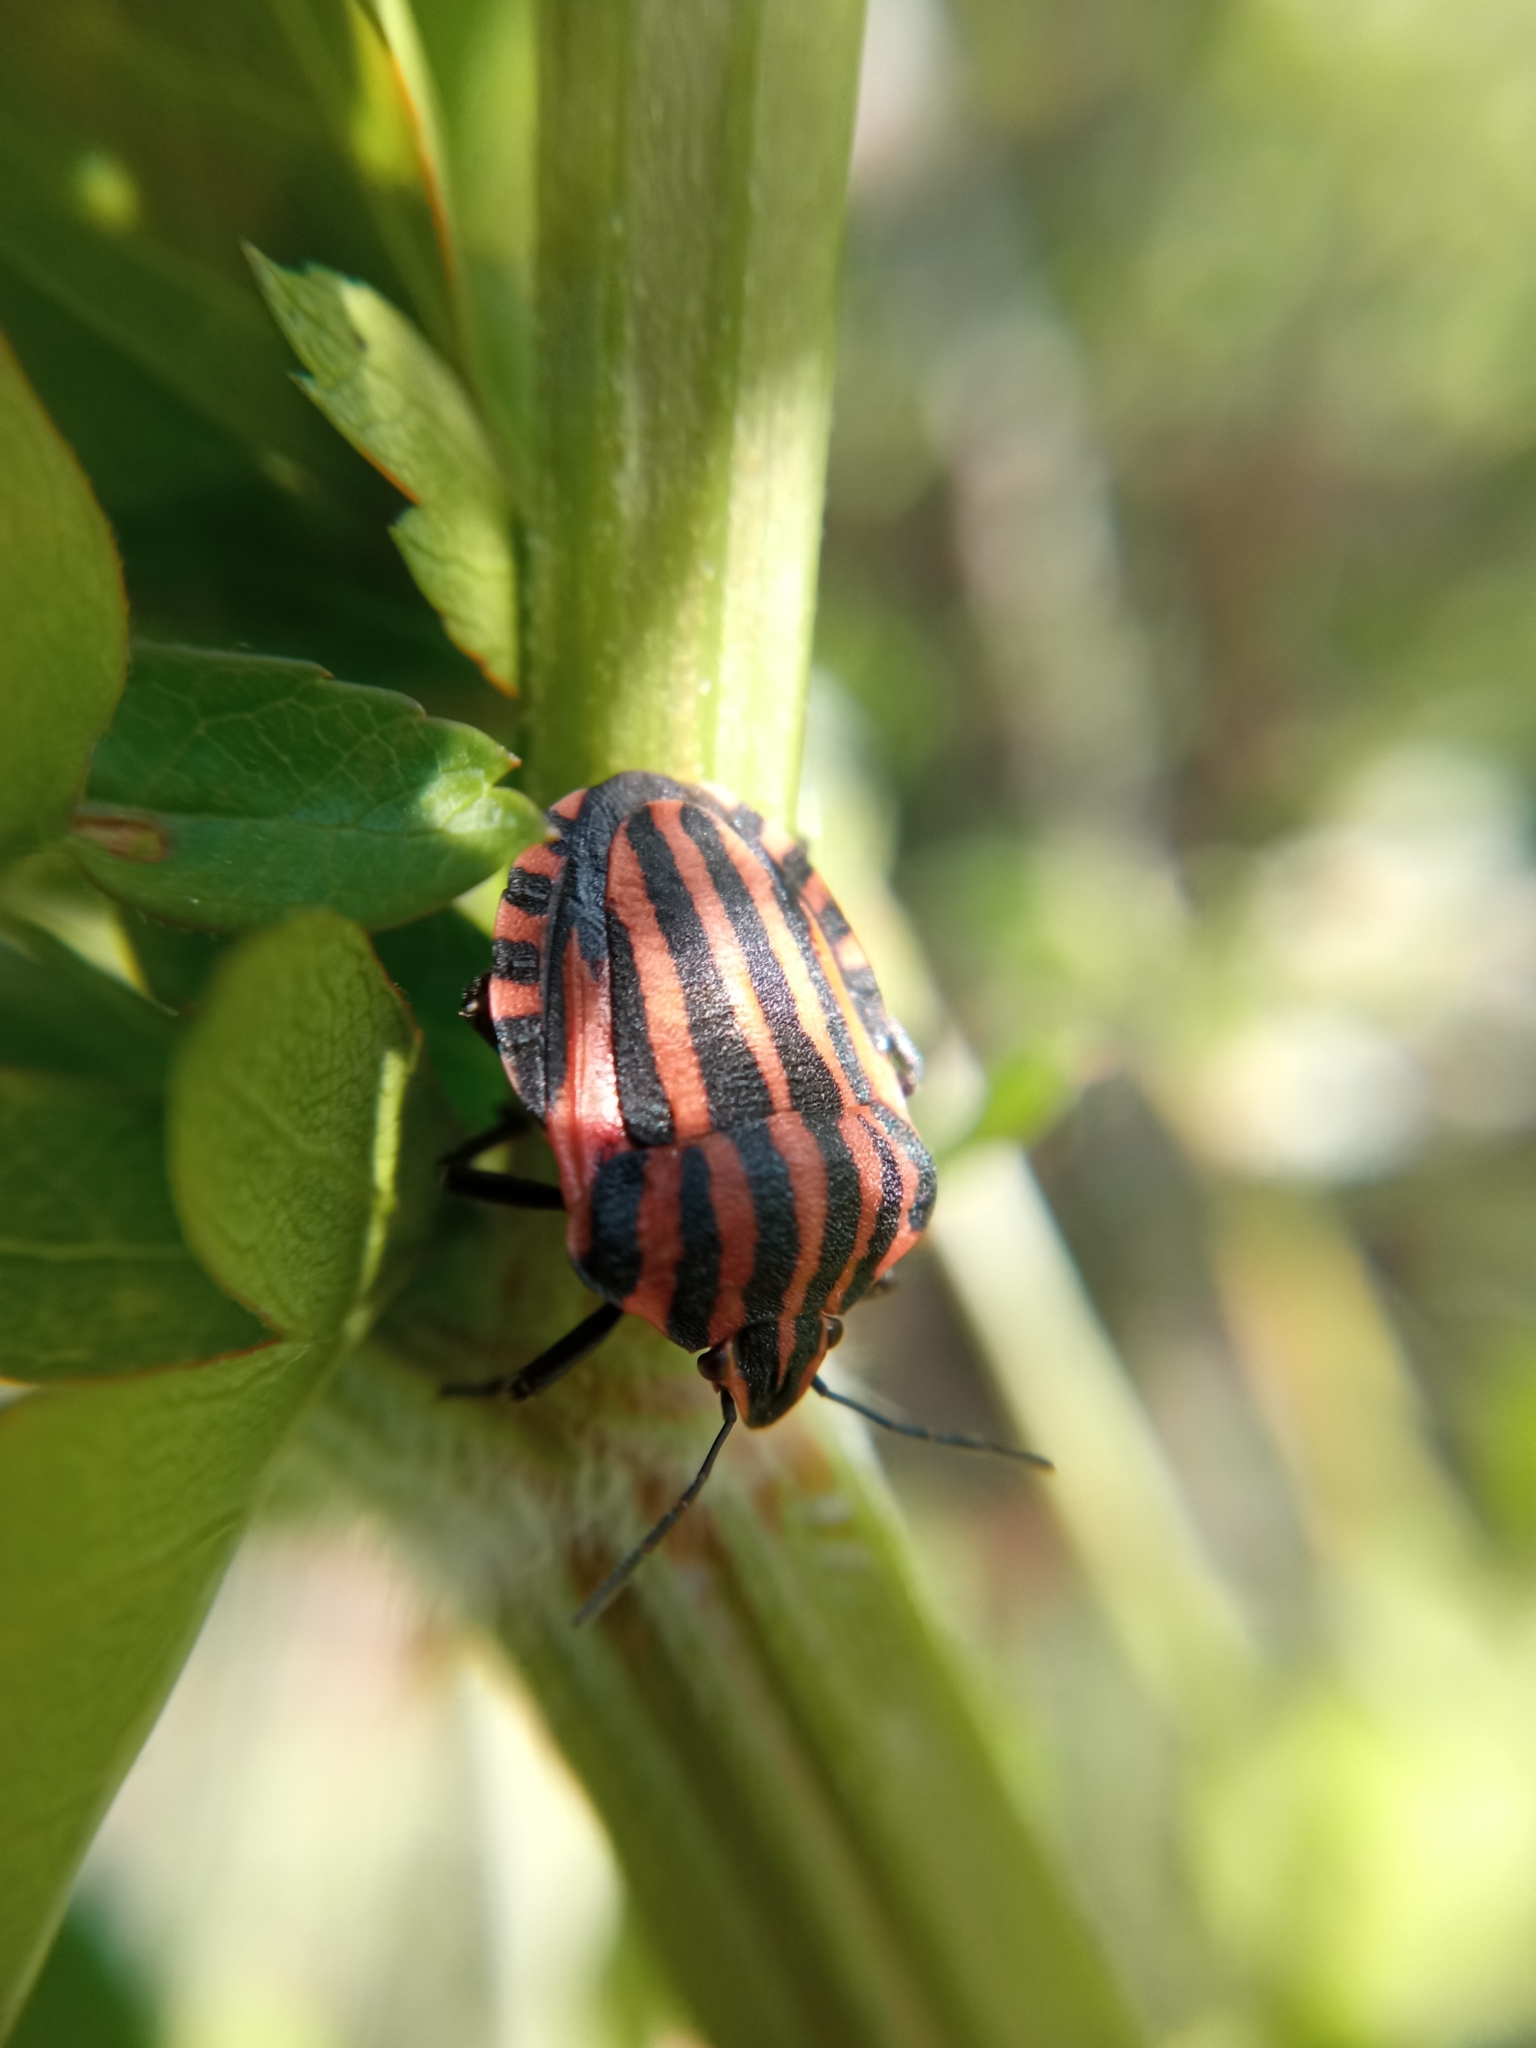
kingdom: Animalia
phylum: Arthropoda
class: Insecta
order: Hemiptera
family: Pentatomidae
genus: Graphosoma
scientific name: Graphosoma italicum
